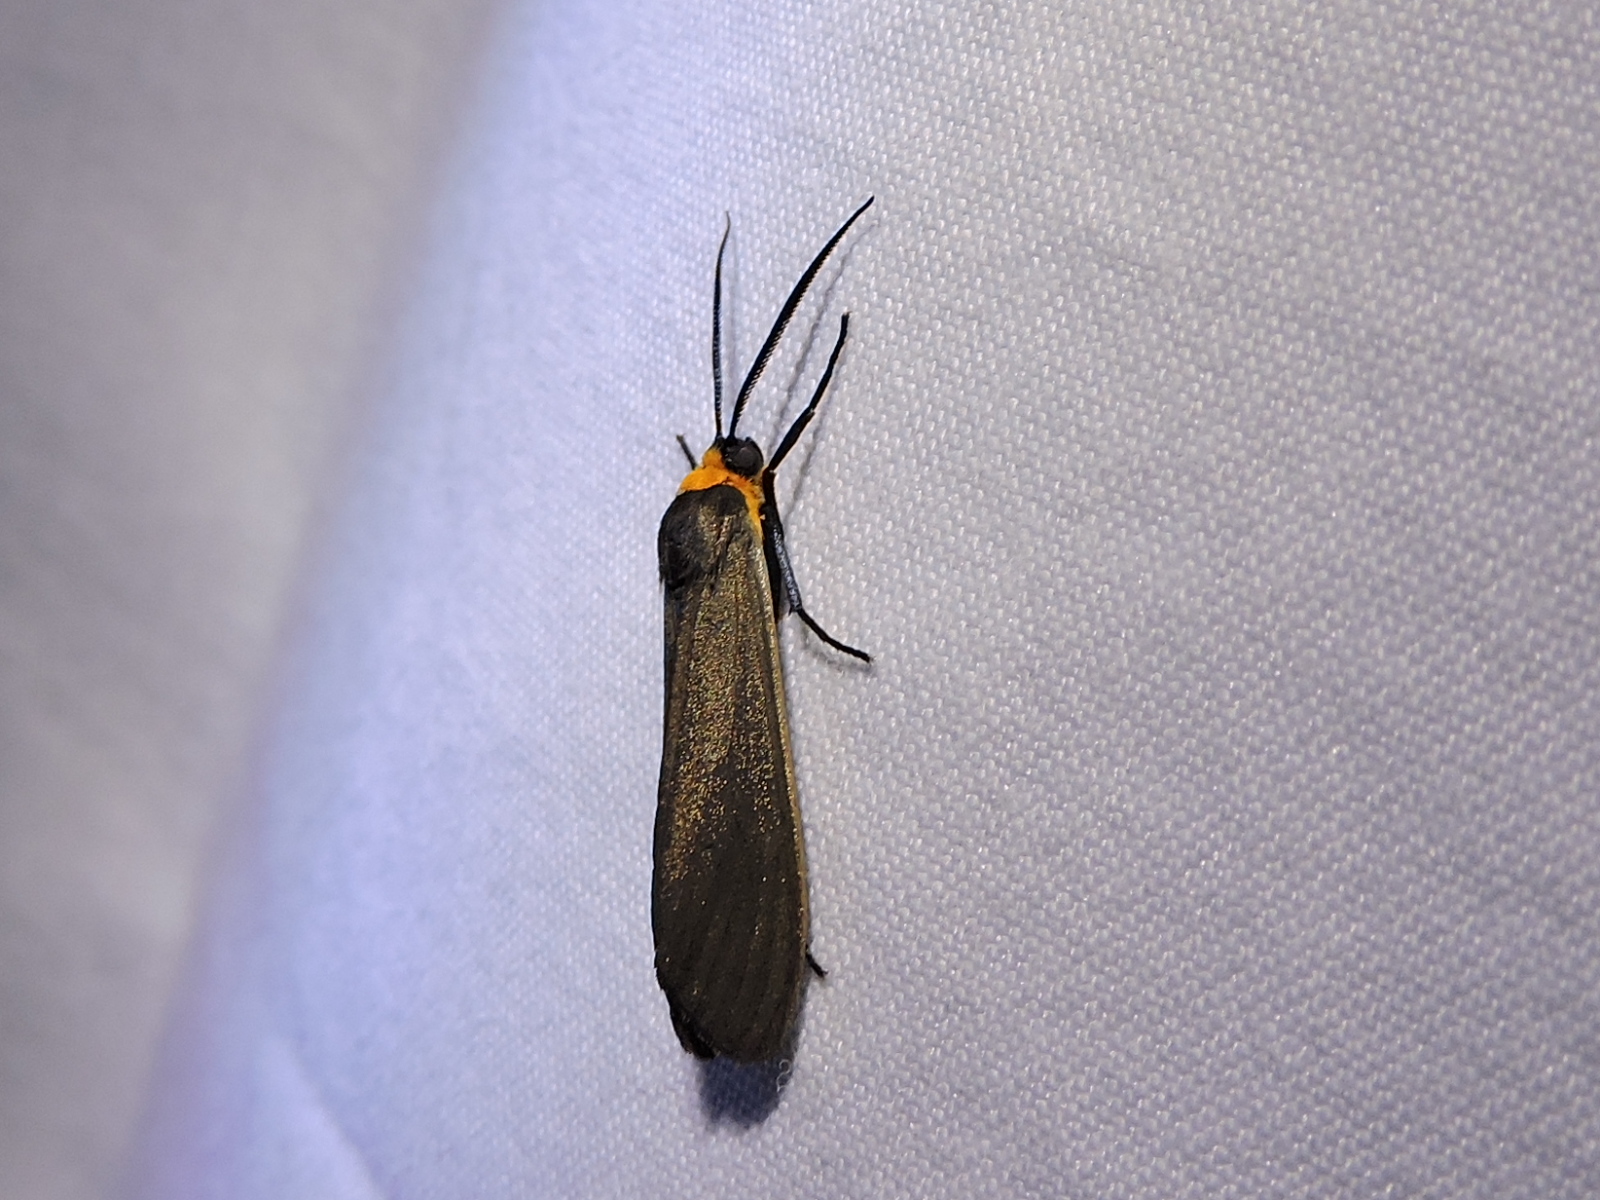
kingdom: Animalia
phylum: Arthropoda
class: Insecta
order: Lepidoptera
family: Erebidae
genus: Cisseps
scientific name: Cisseps fulvicollis
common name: Yellow-collared scape moth
